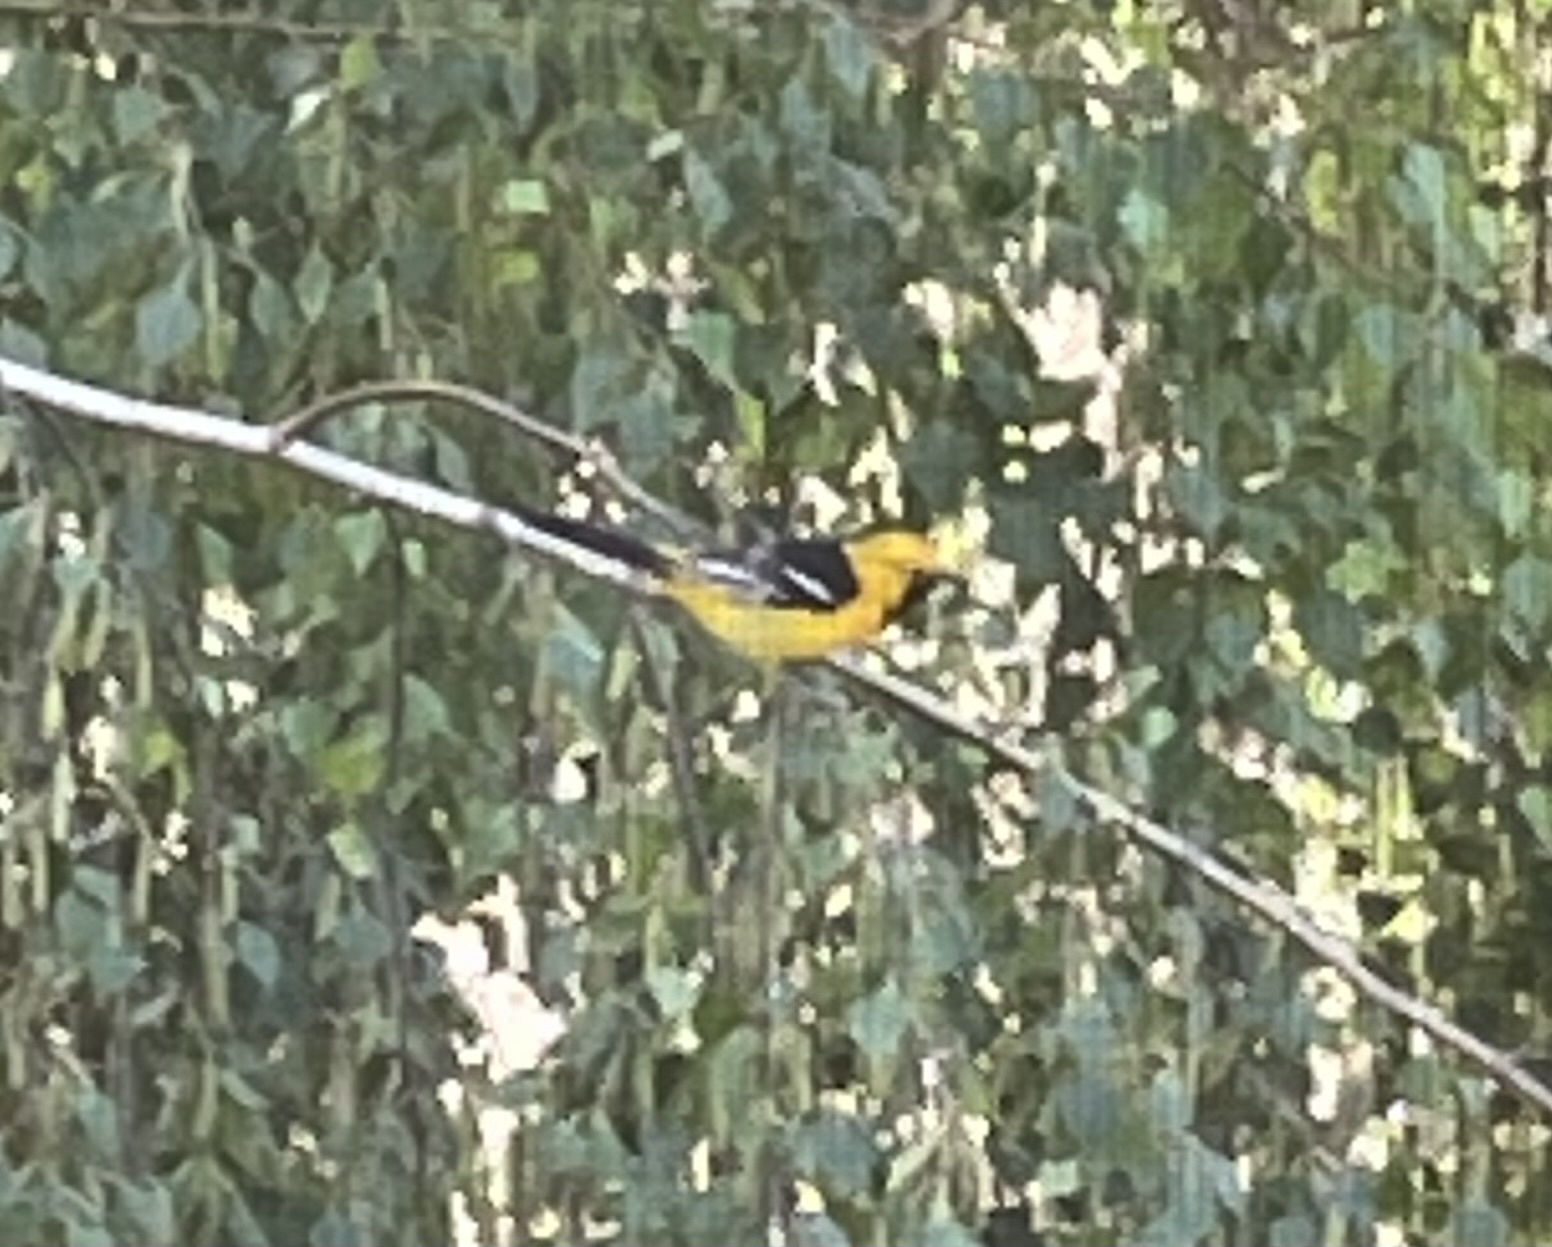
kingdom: Animalia
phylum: Chordata
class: Aves
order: Passeriformes
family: Icteridae
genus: Icterus
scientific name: Icterus cucullatus
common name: Hooded oriole
